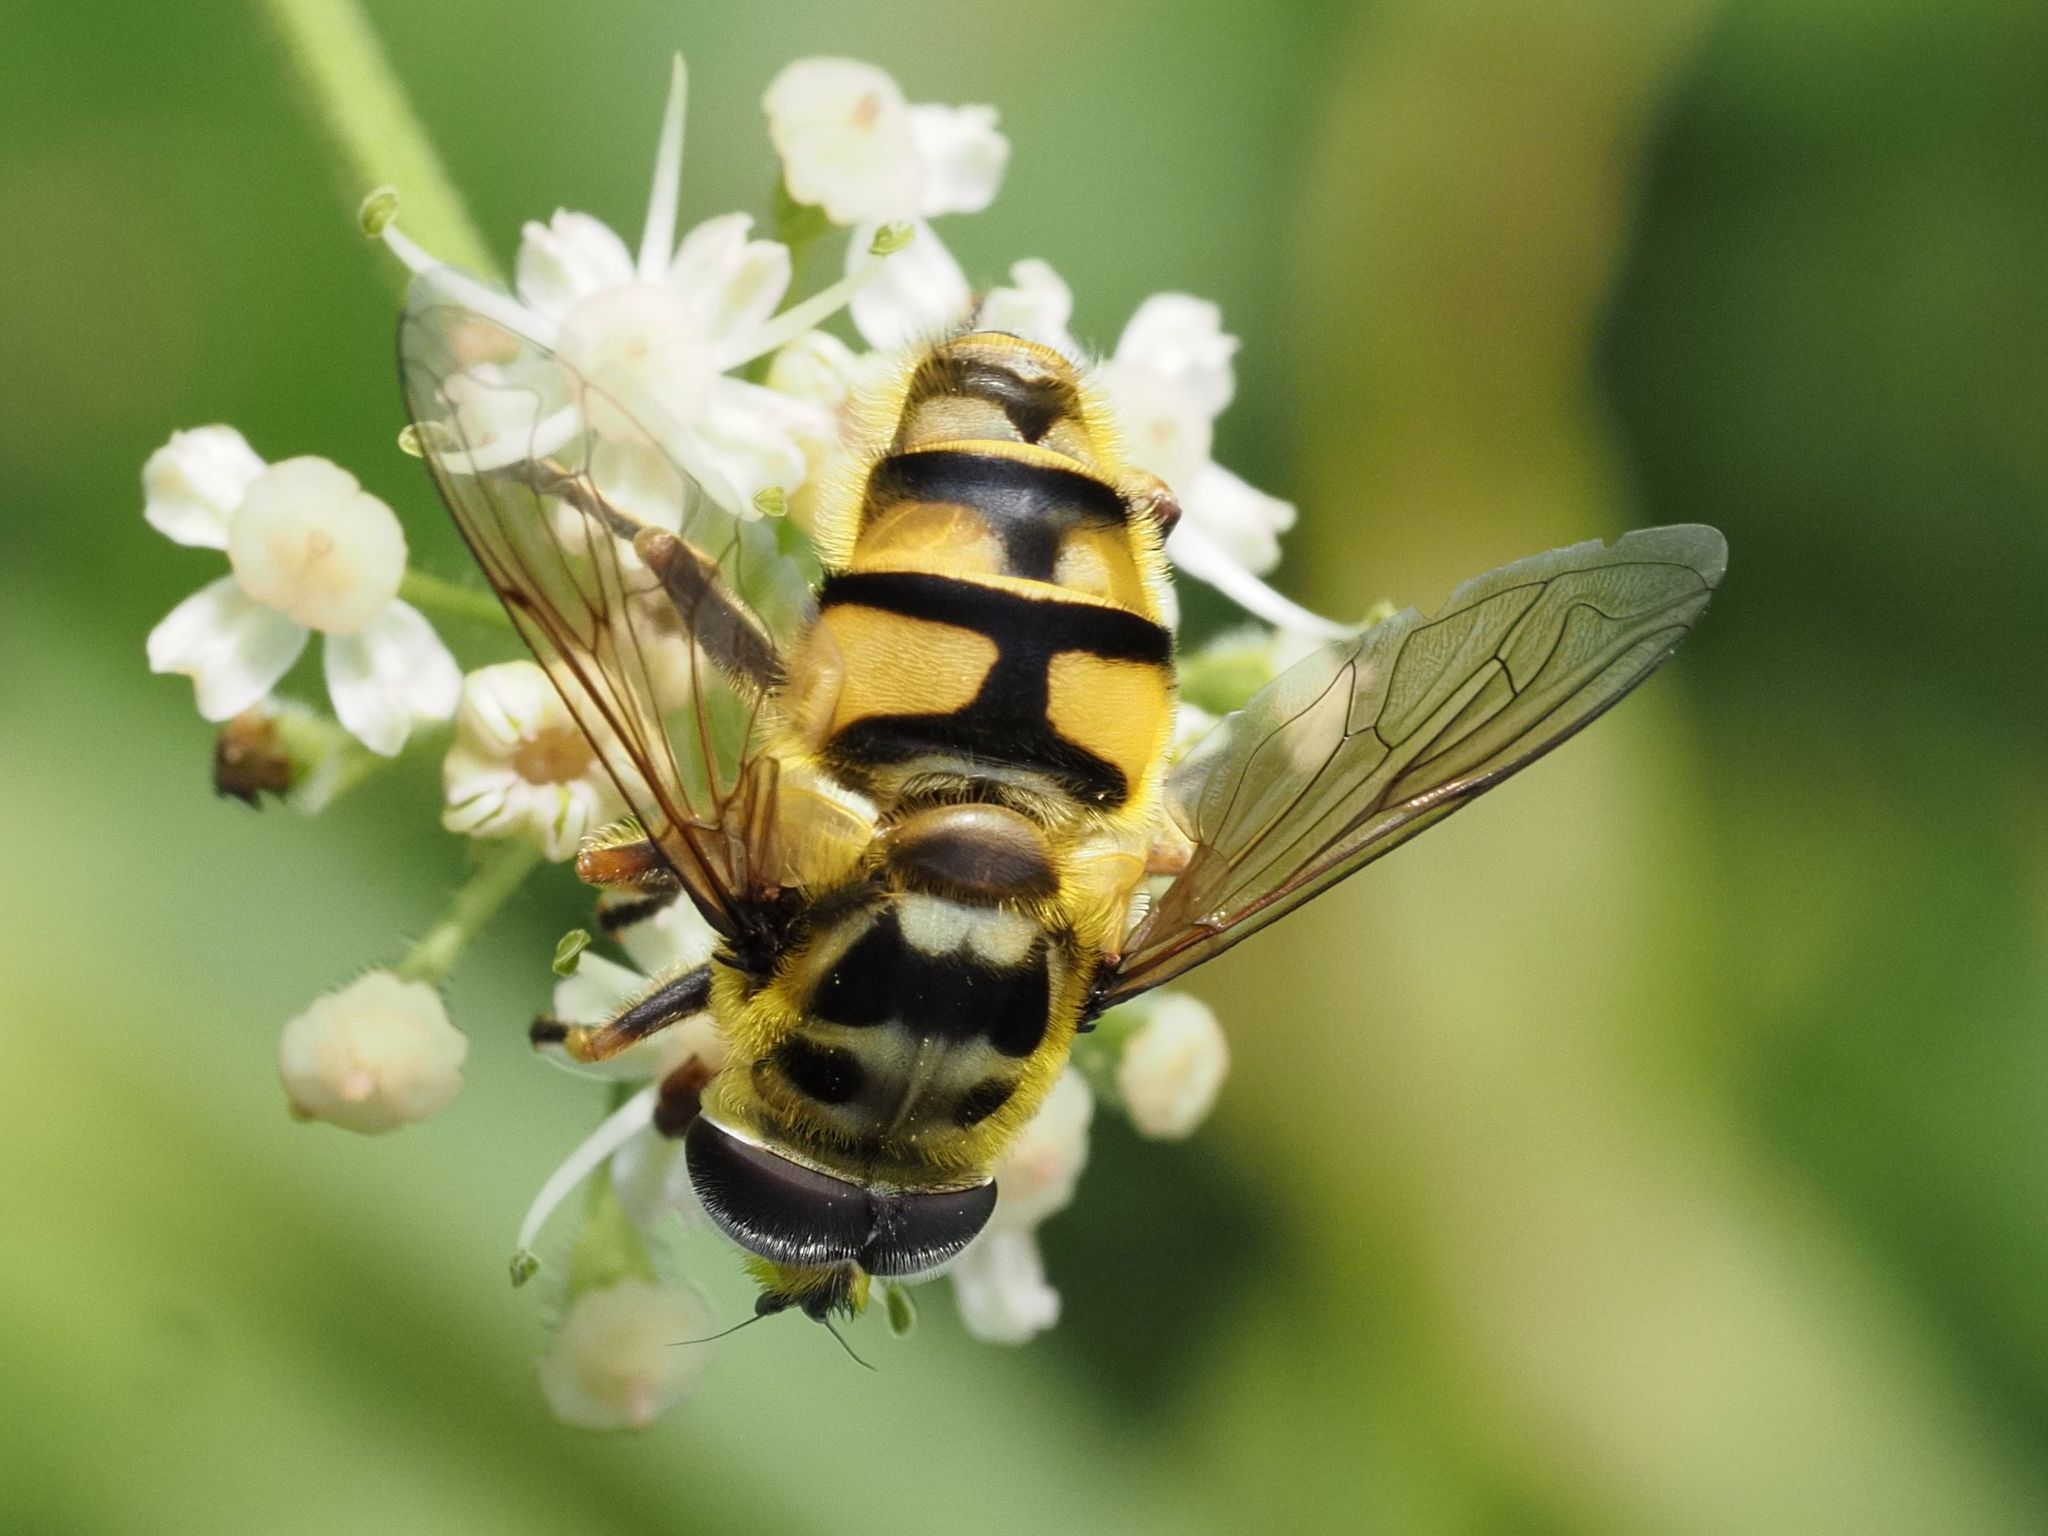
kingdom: Animalia
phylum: Arthropoda
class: Insecta
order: Diptera
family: Syrphidae
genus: Myathropa
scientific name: Myathropa florea
